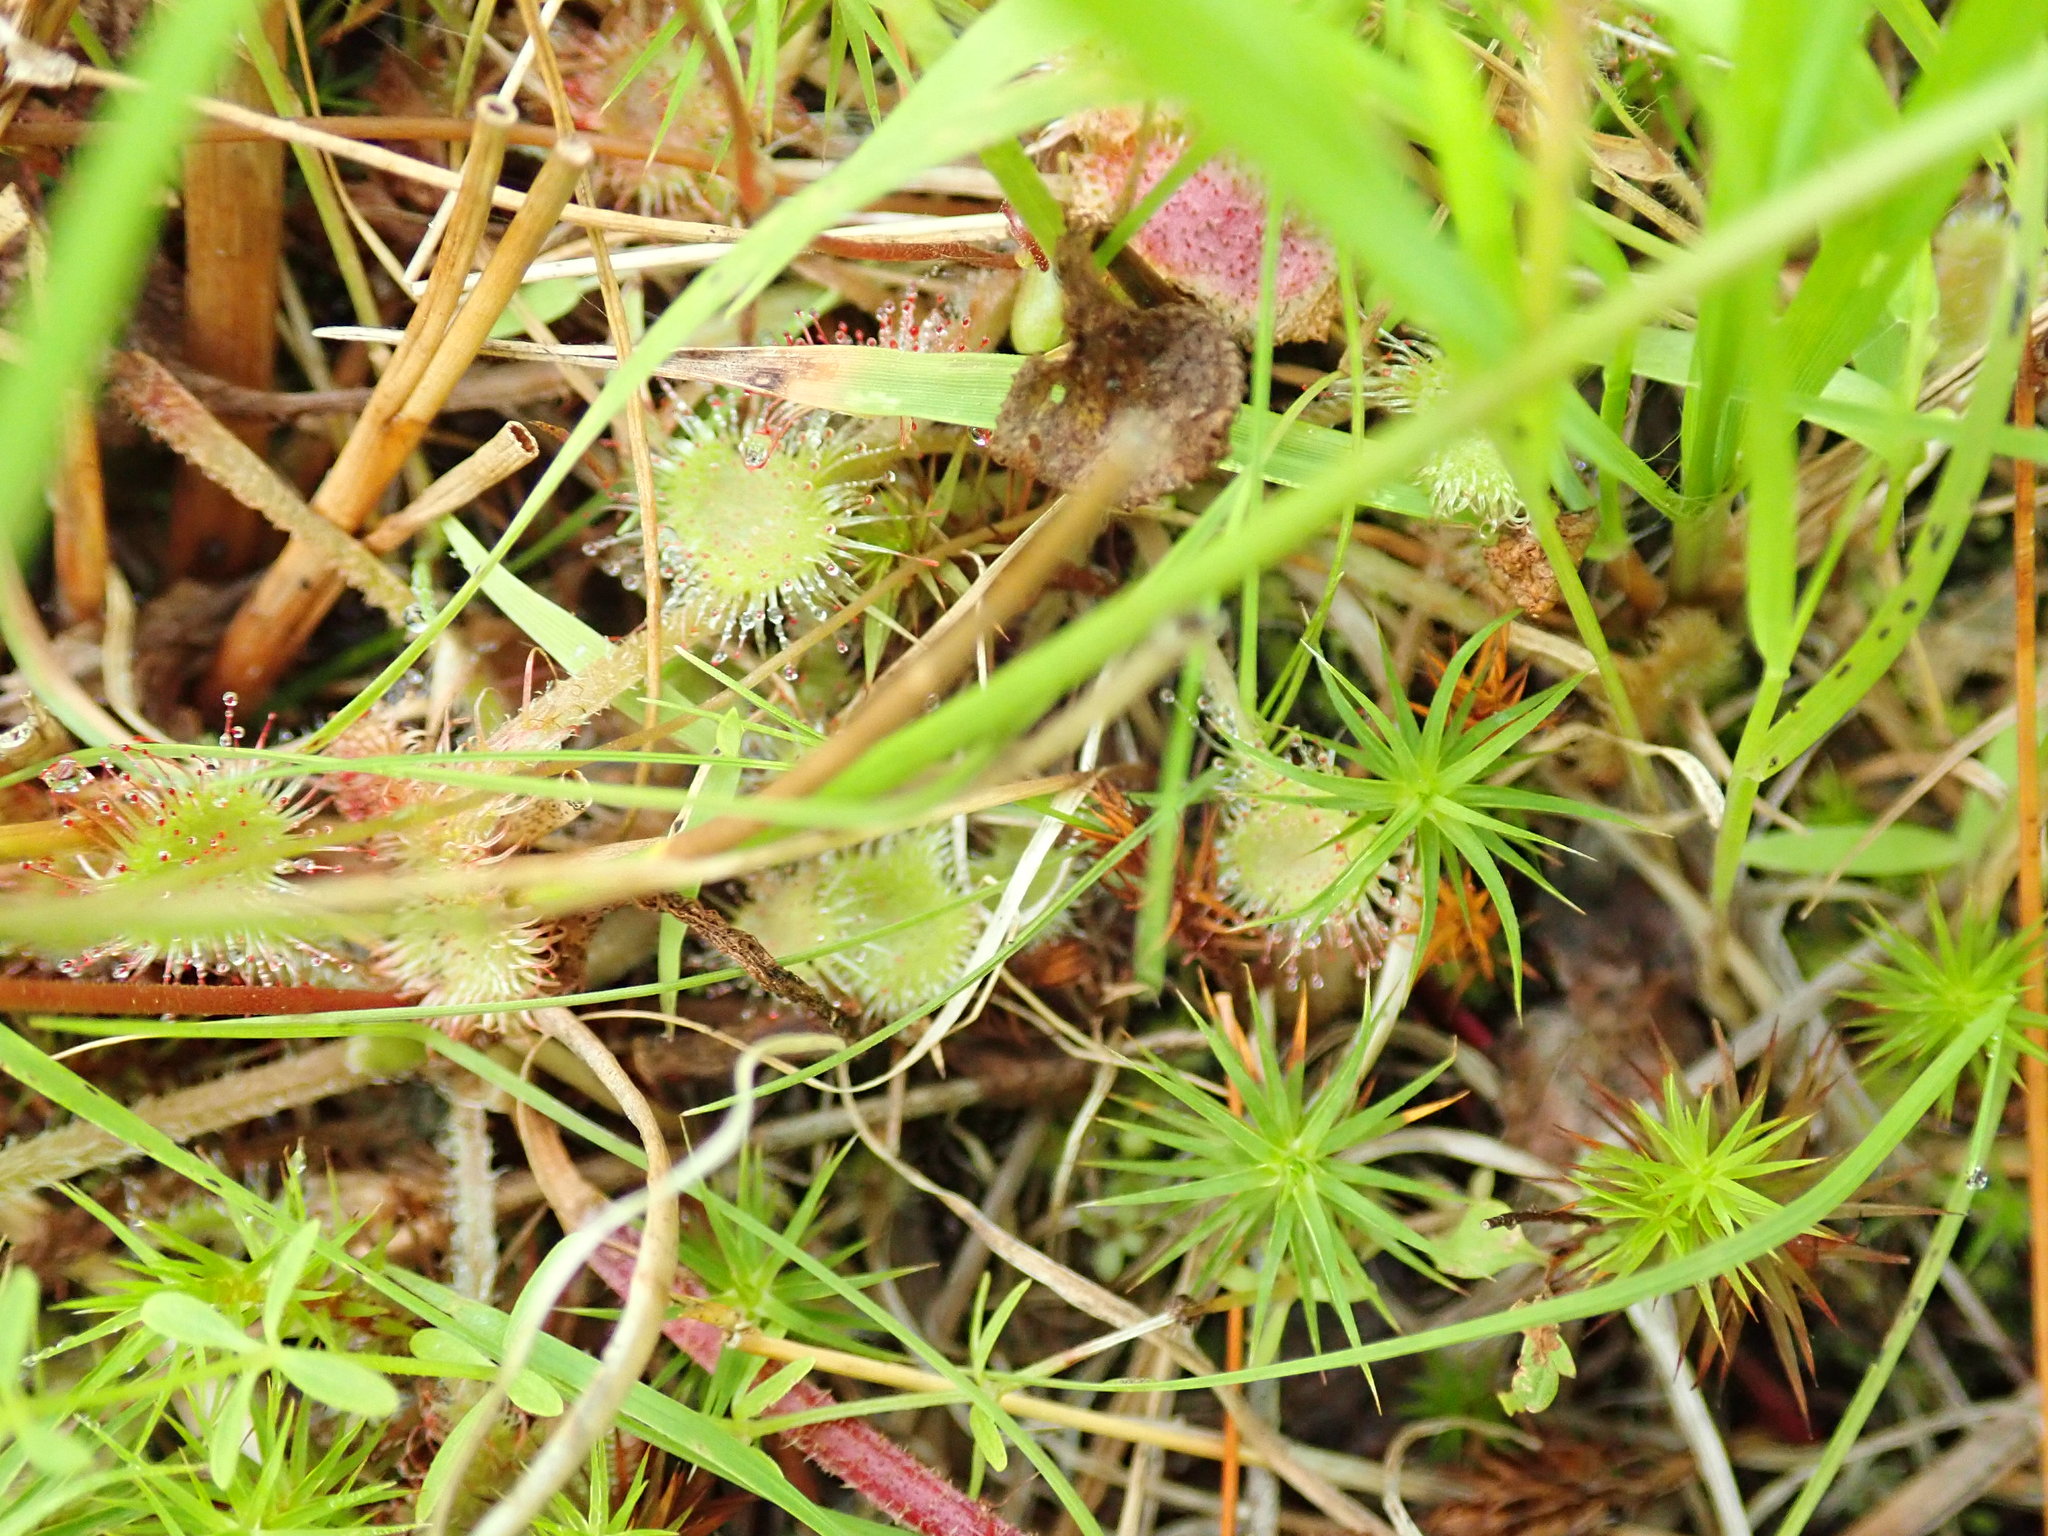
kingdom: Plantae
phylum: Tracheophyta
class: Magnoliopsida
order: Caryophyllales
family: Droseraceae
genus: Drosera
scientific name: Drosera rotundifolia
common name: Round-leaved sundew
